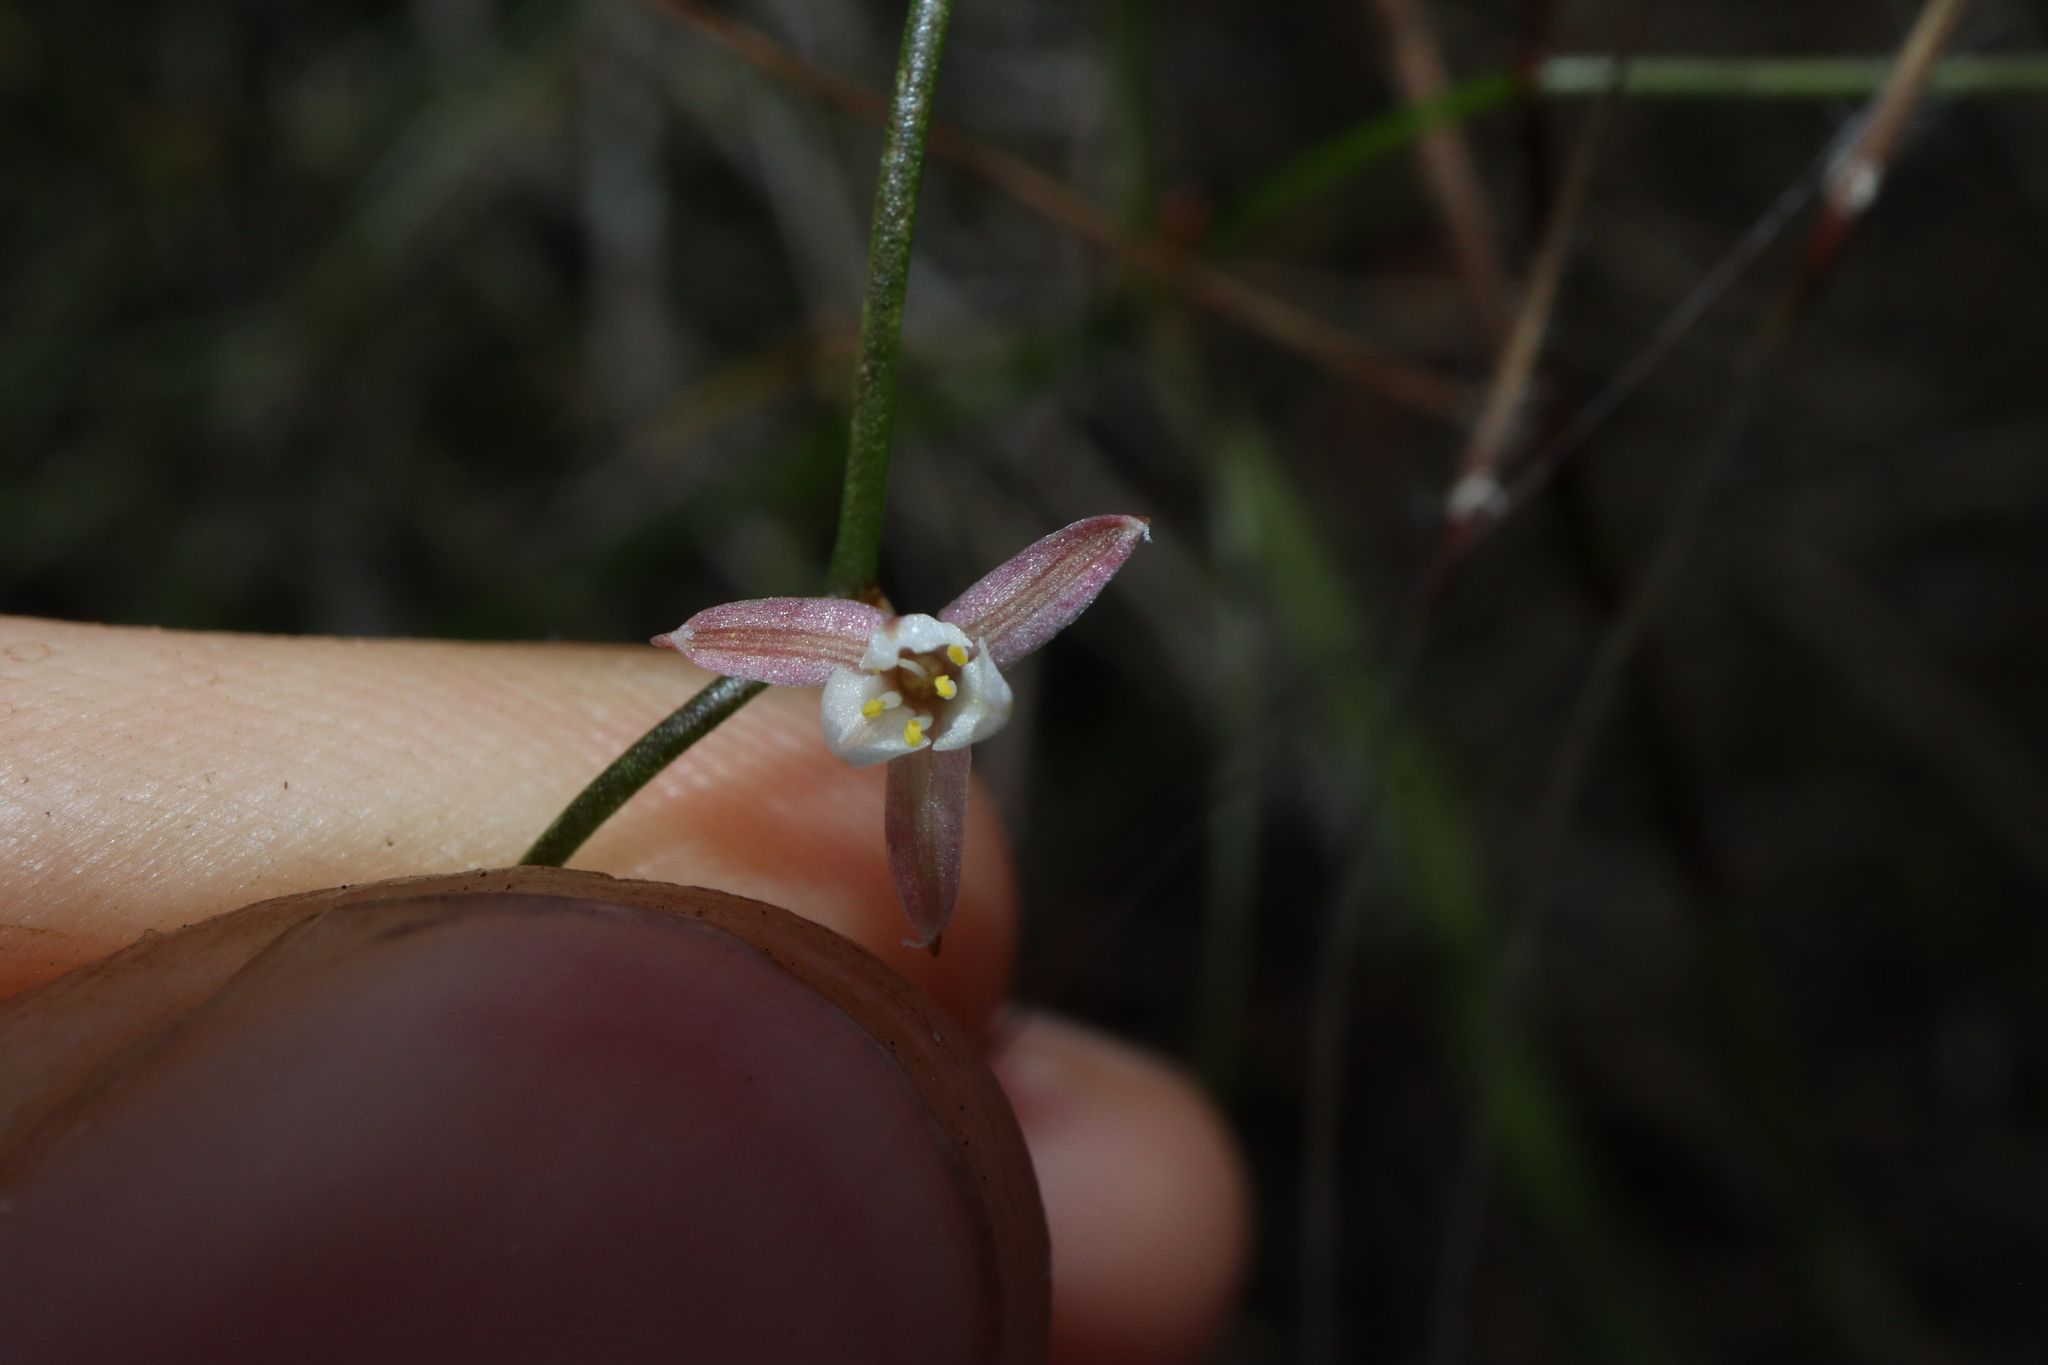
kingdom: Plantae
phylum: Tracheophyta
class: Liliopsida
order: Asparagales
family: Asphodelaceae
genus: Corynotheca
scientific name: Corynotheca micrantha
